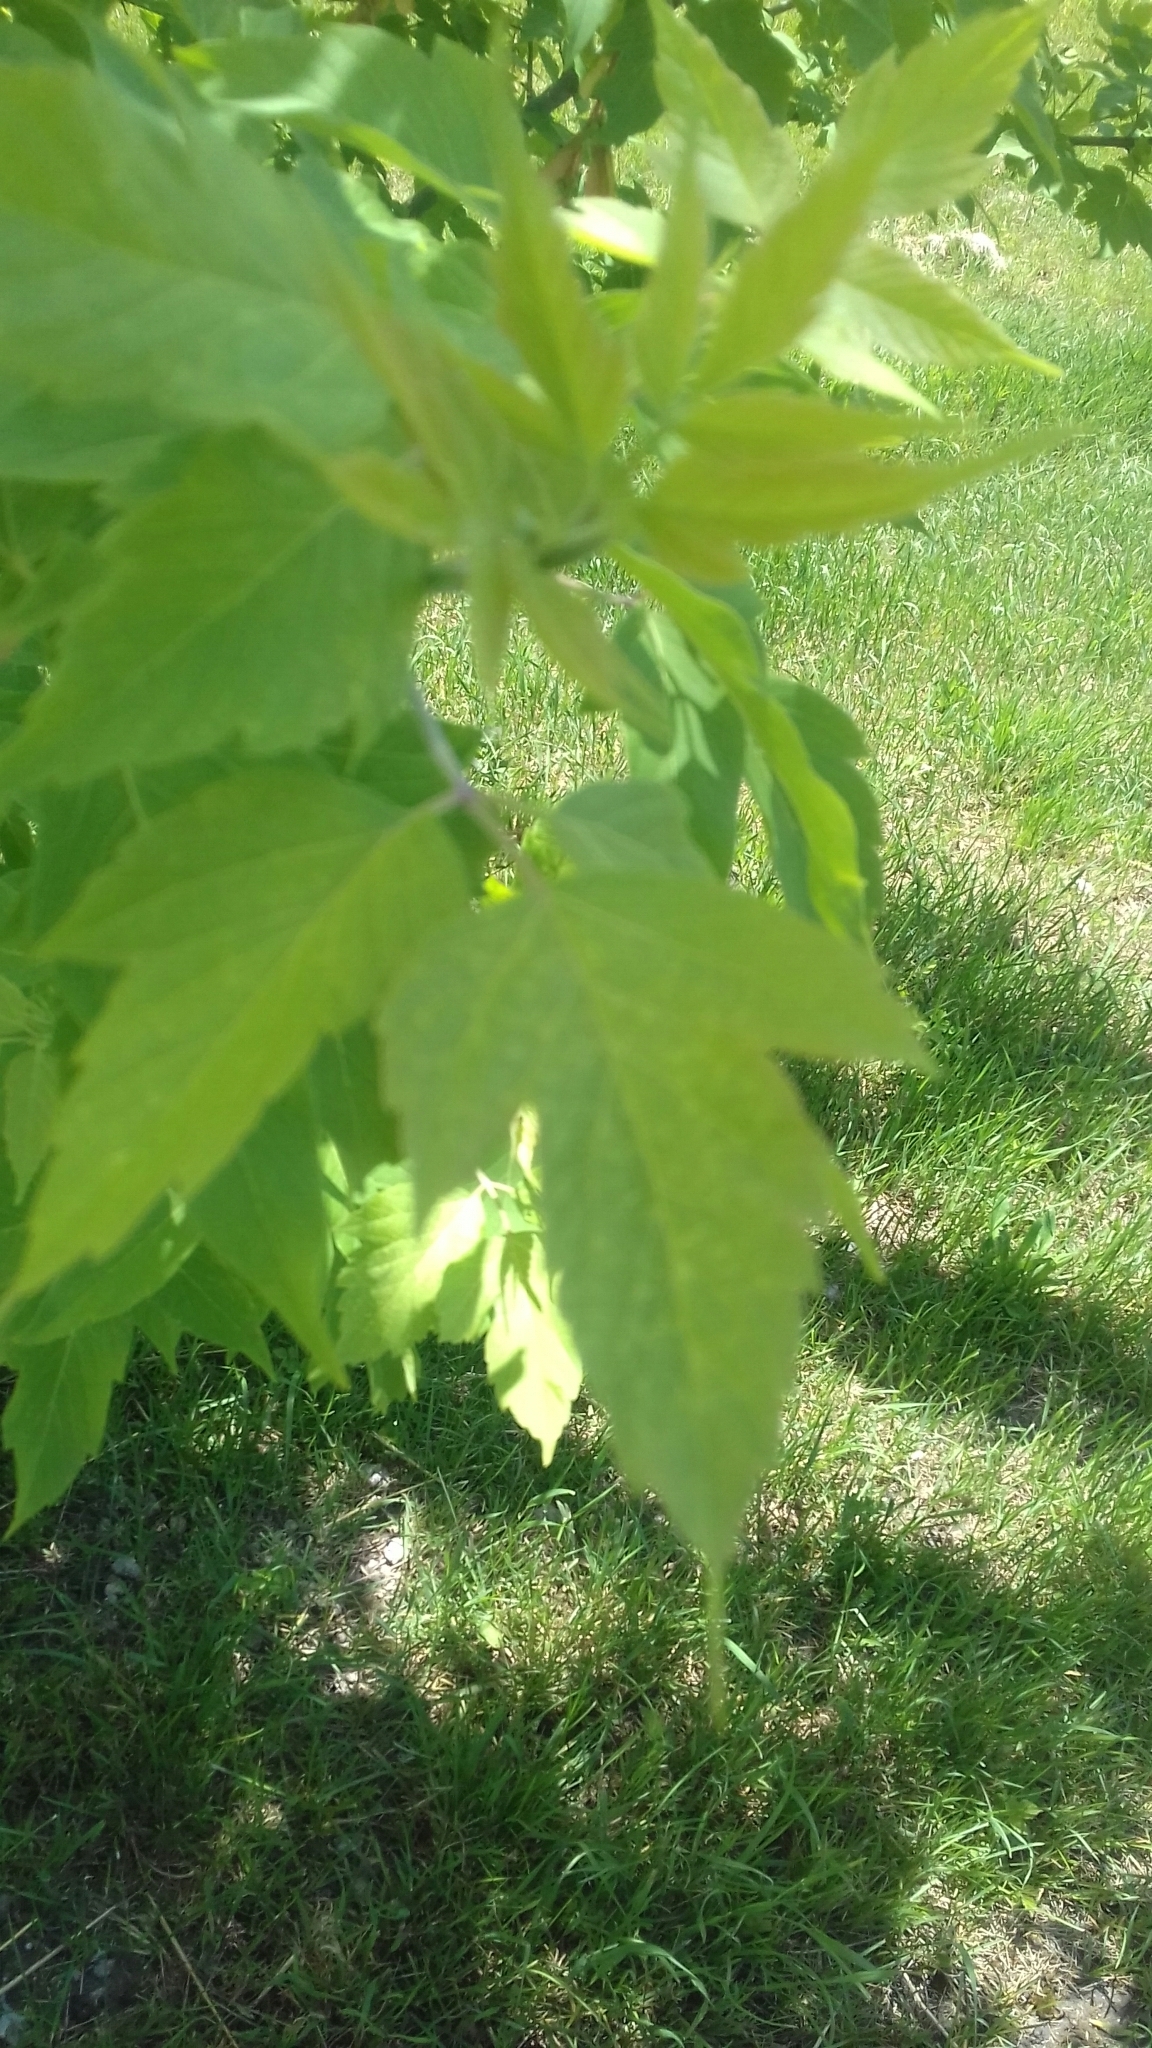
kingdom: Plantae
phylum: Tracheophyta
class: Magnoliopsida
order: Sapindales
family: Sapindaceae
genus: Acer
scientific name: Acer negundo
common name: Ashleaf maple
